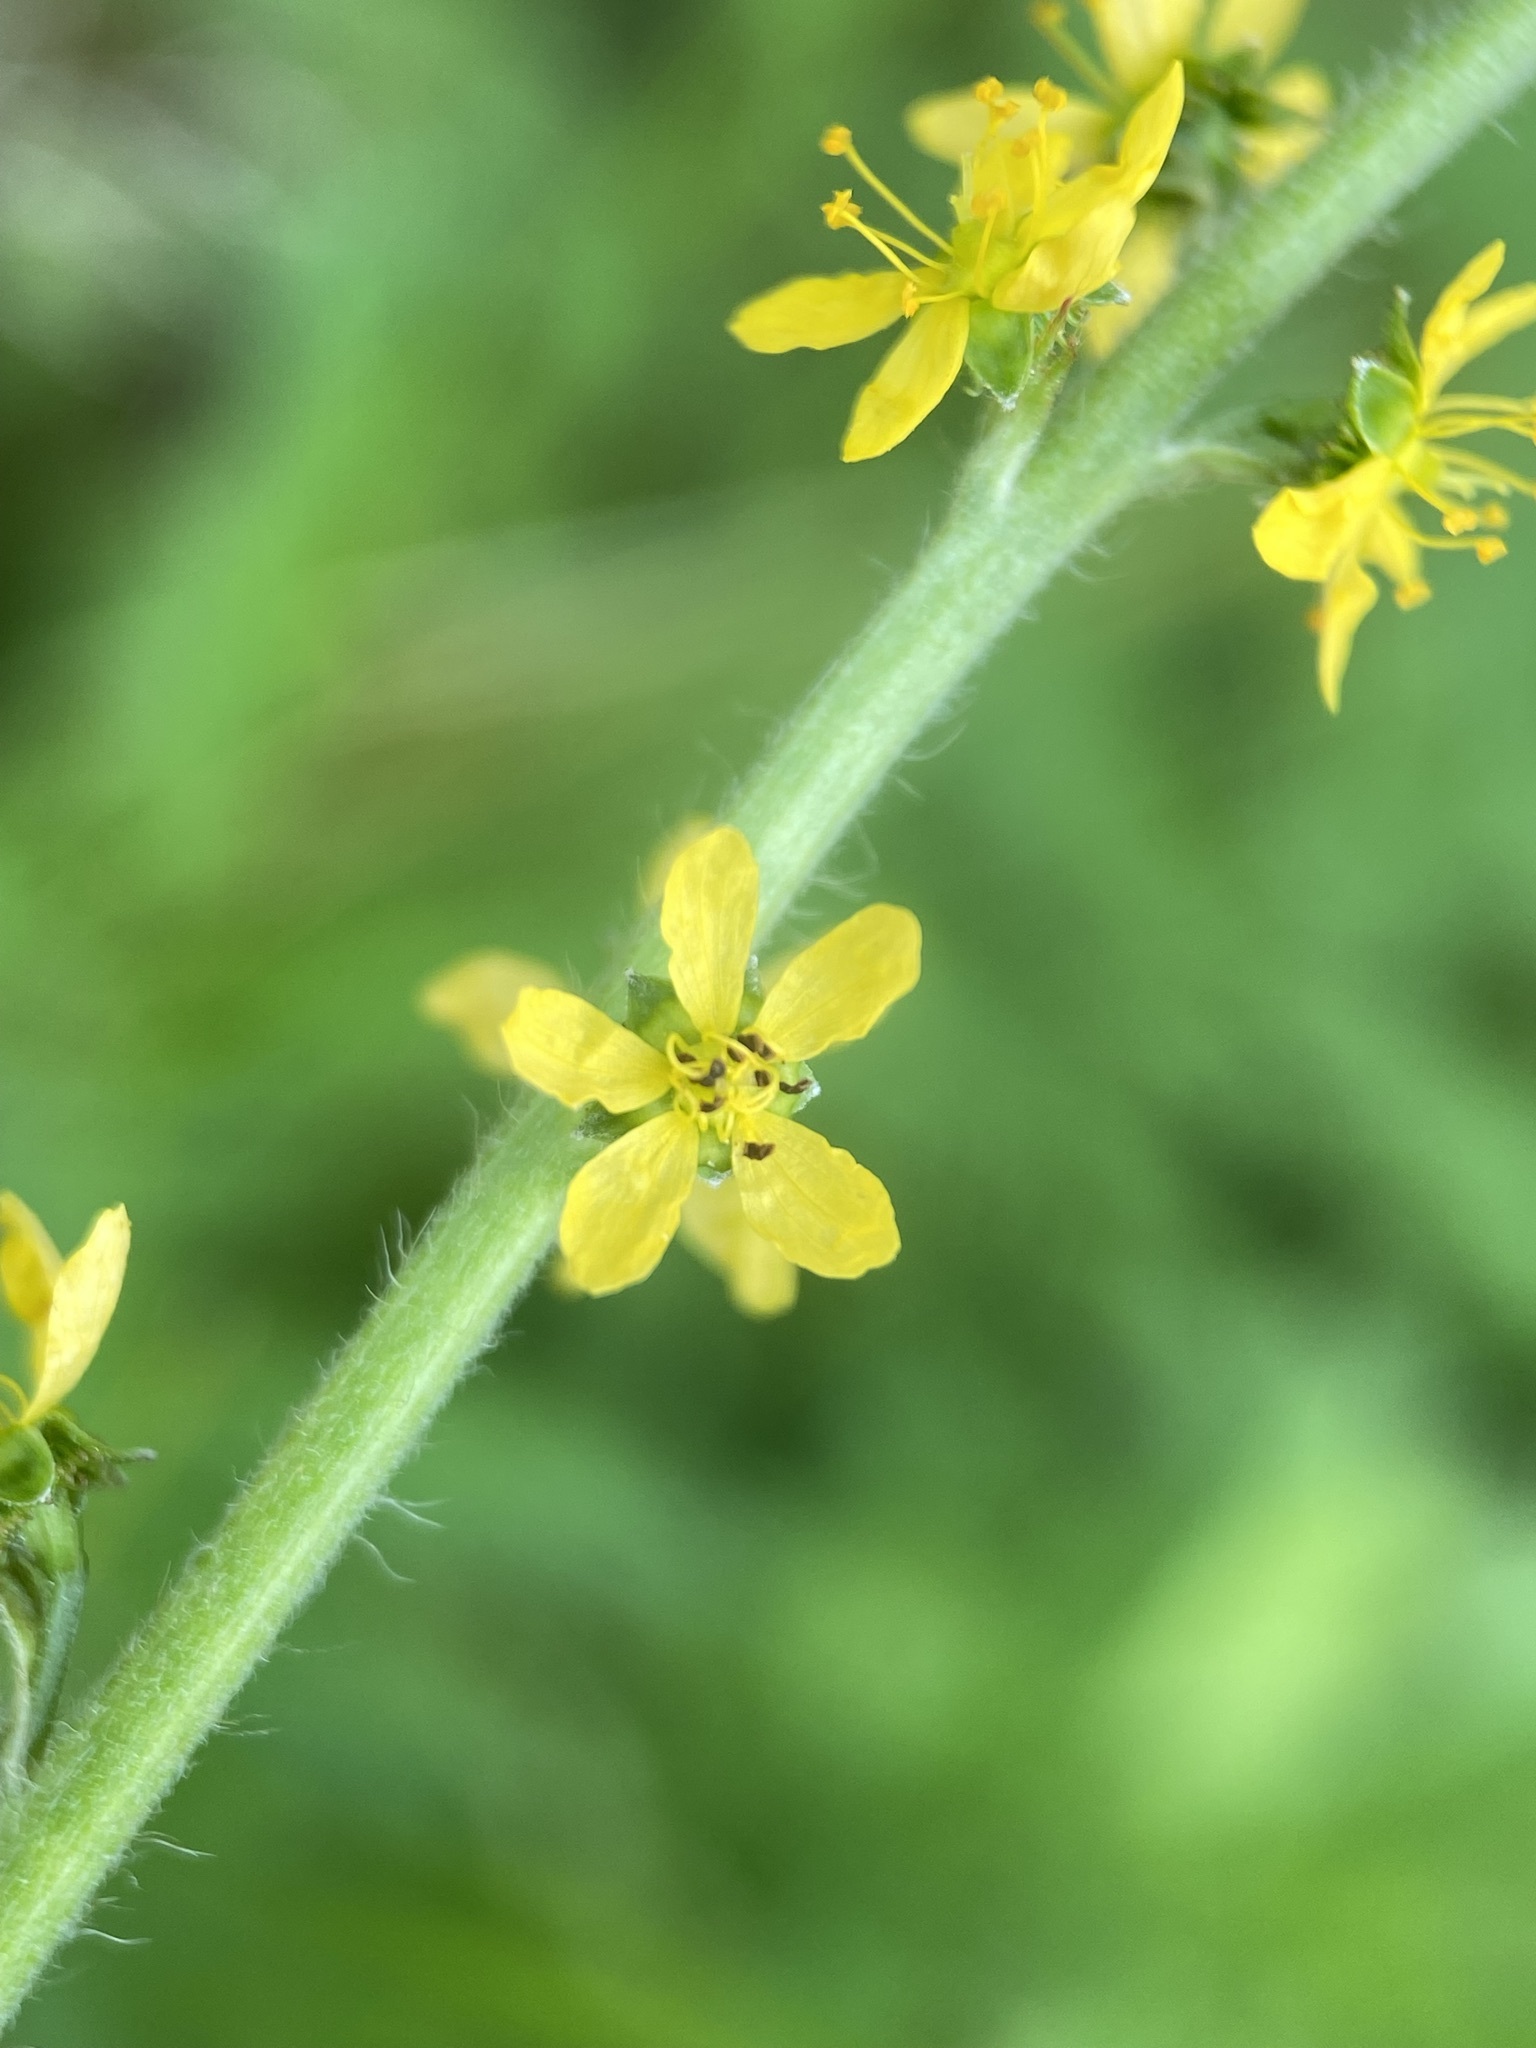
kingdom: Plantae
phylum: Tracheophyta
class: Magnoliopsida
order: Rosales
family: Rosaceae
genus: Agrimonia
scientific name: Agrimonia parviflora
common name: Harvest-lice
